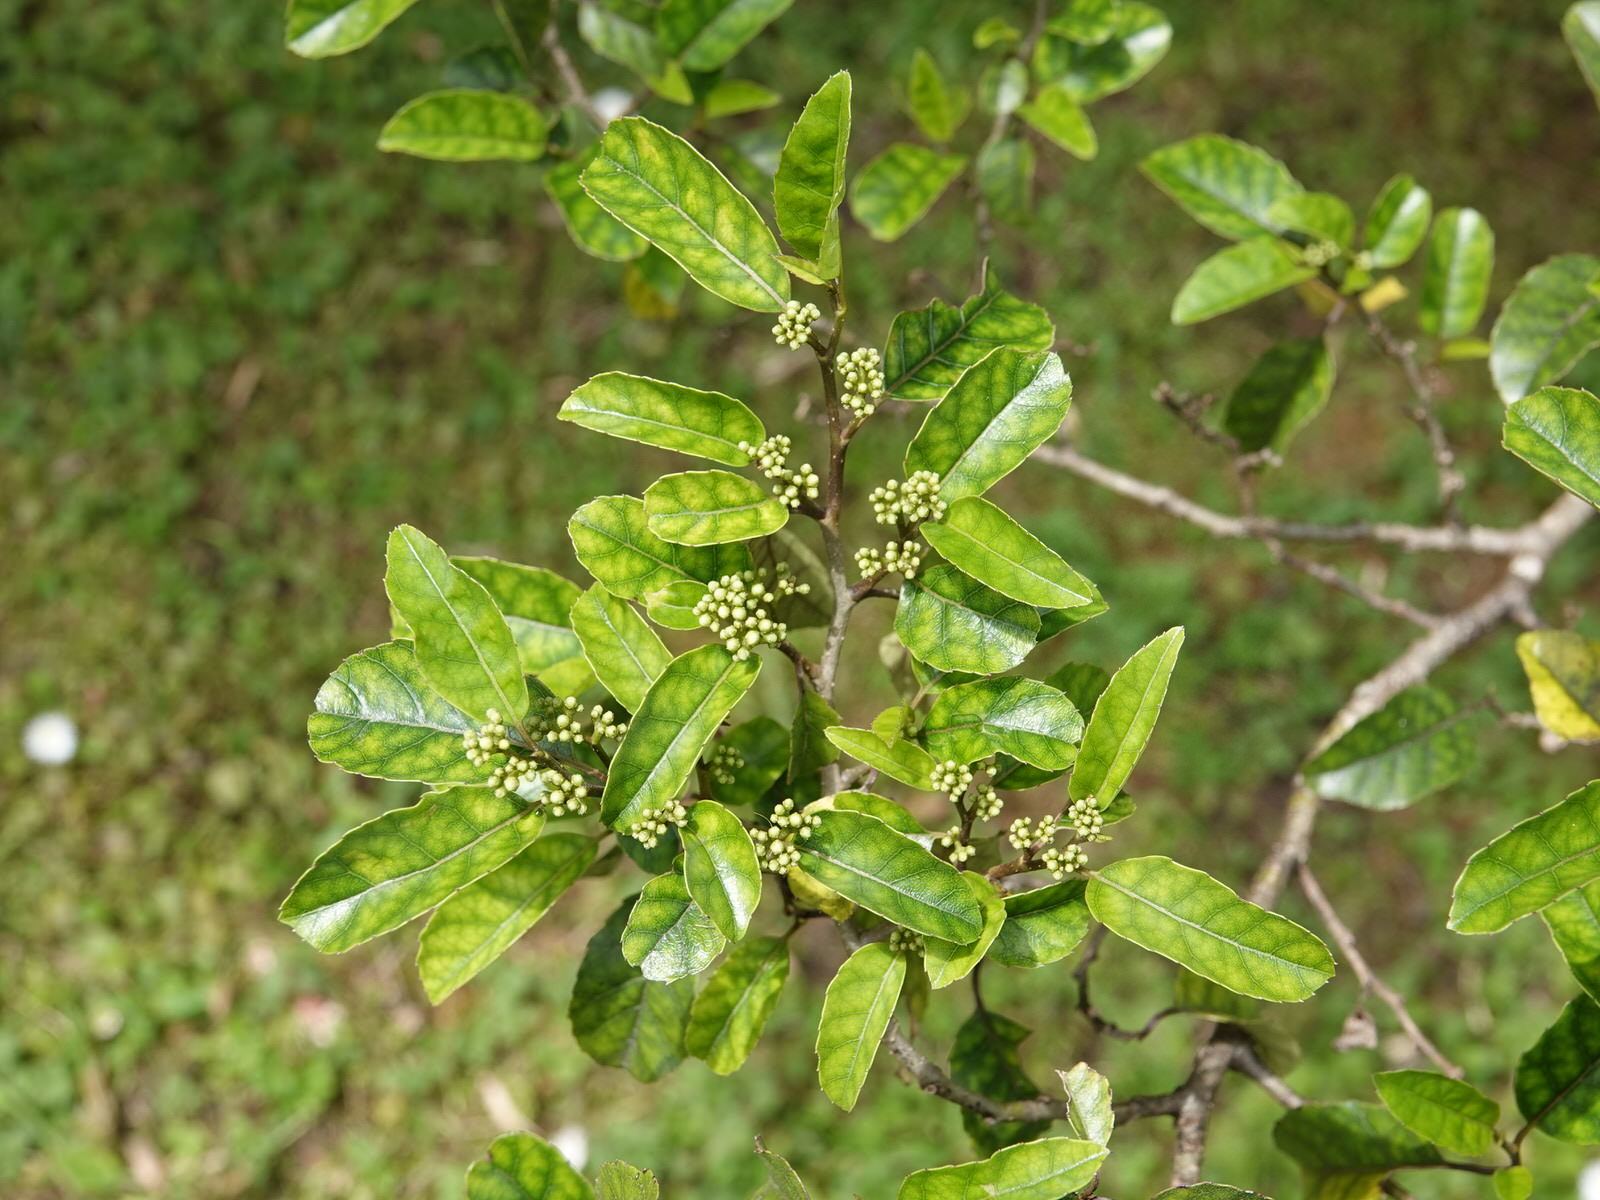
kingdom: Plantae
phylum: Tracheophyta
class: Magnoliopsida
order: Asterales
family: Rousseaceae
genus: Carpodetus
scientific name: Carpodetus serratus
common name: White mapau
